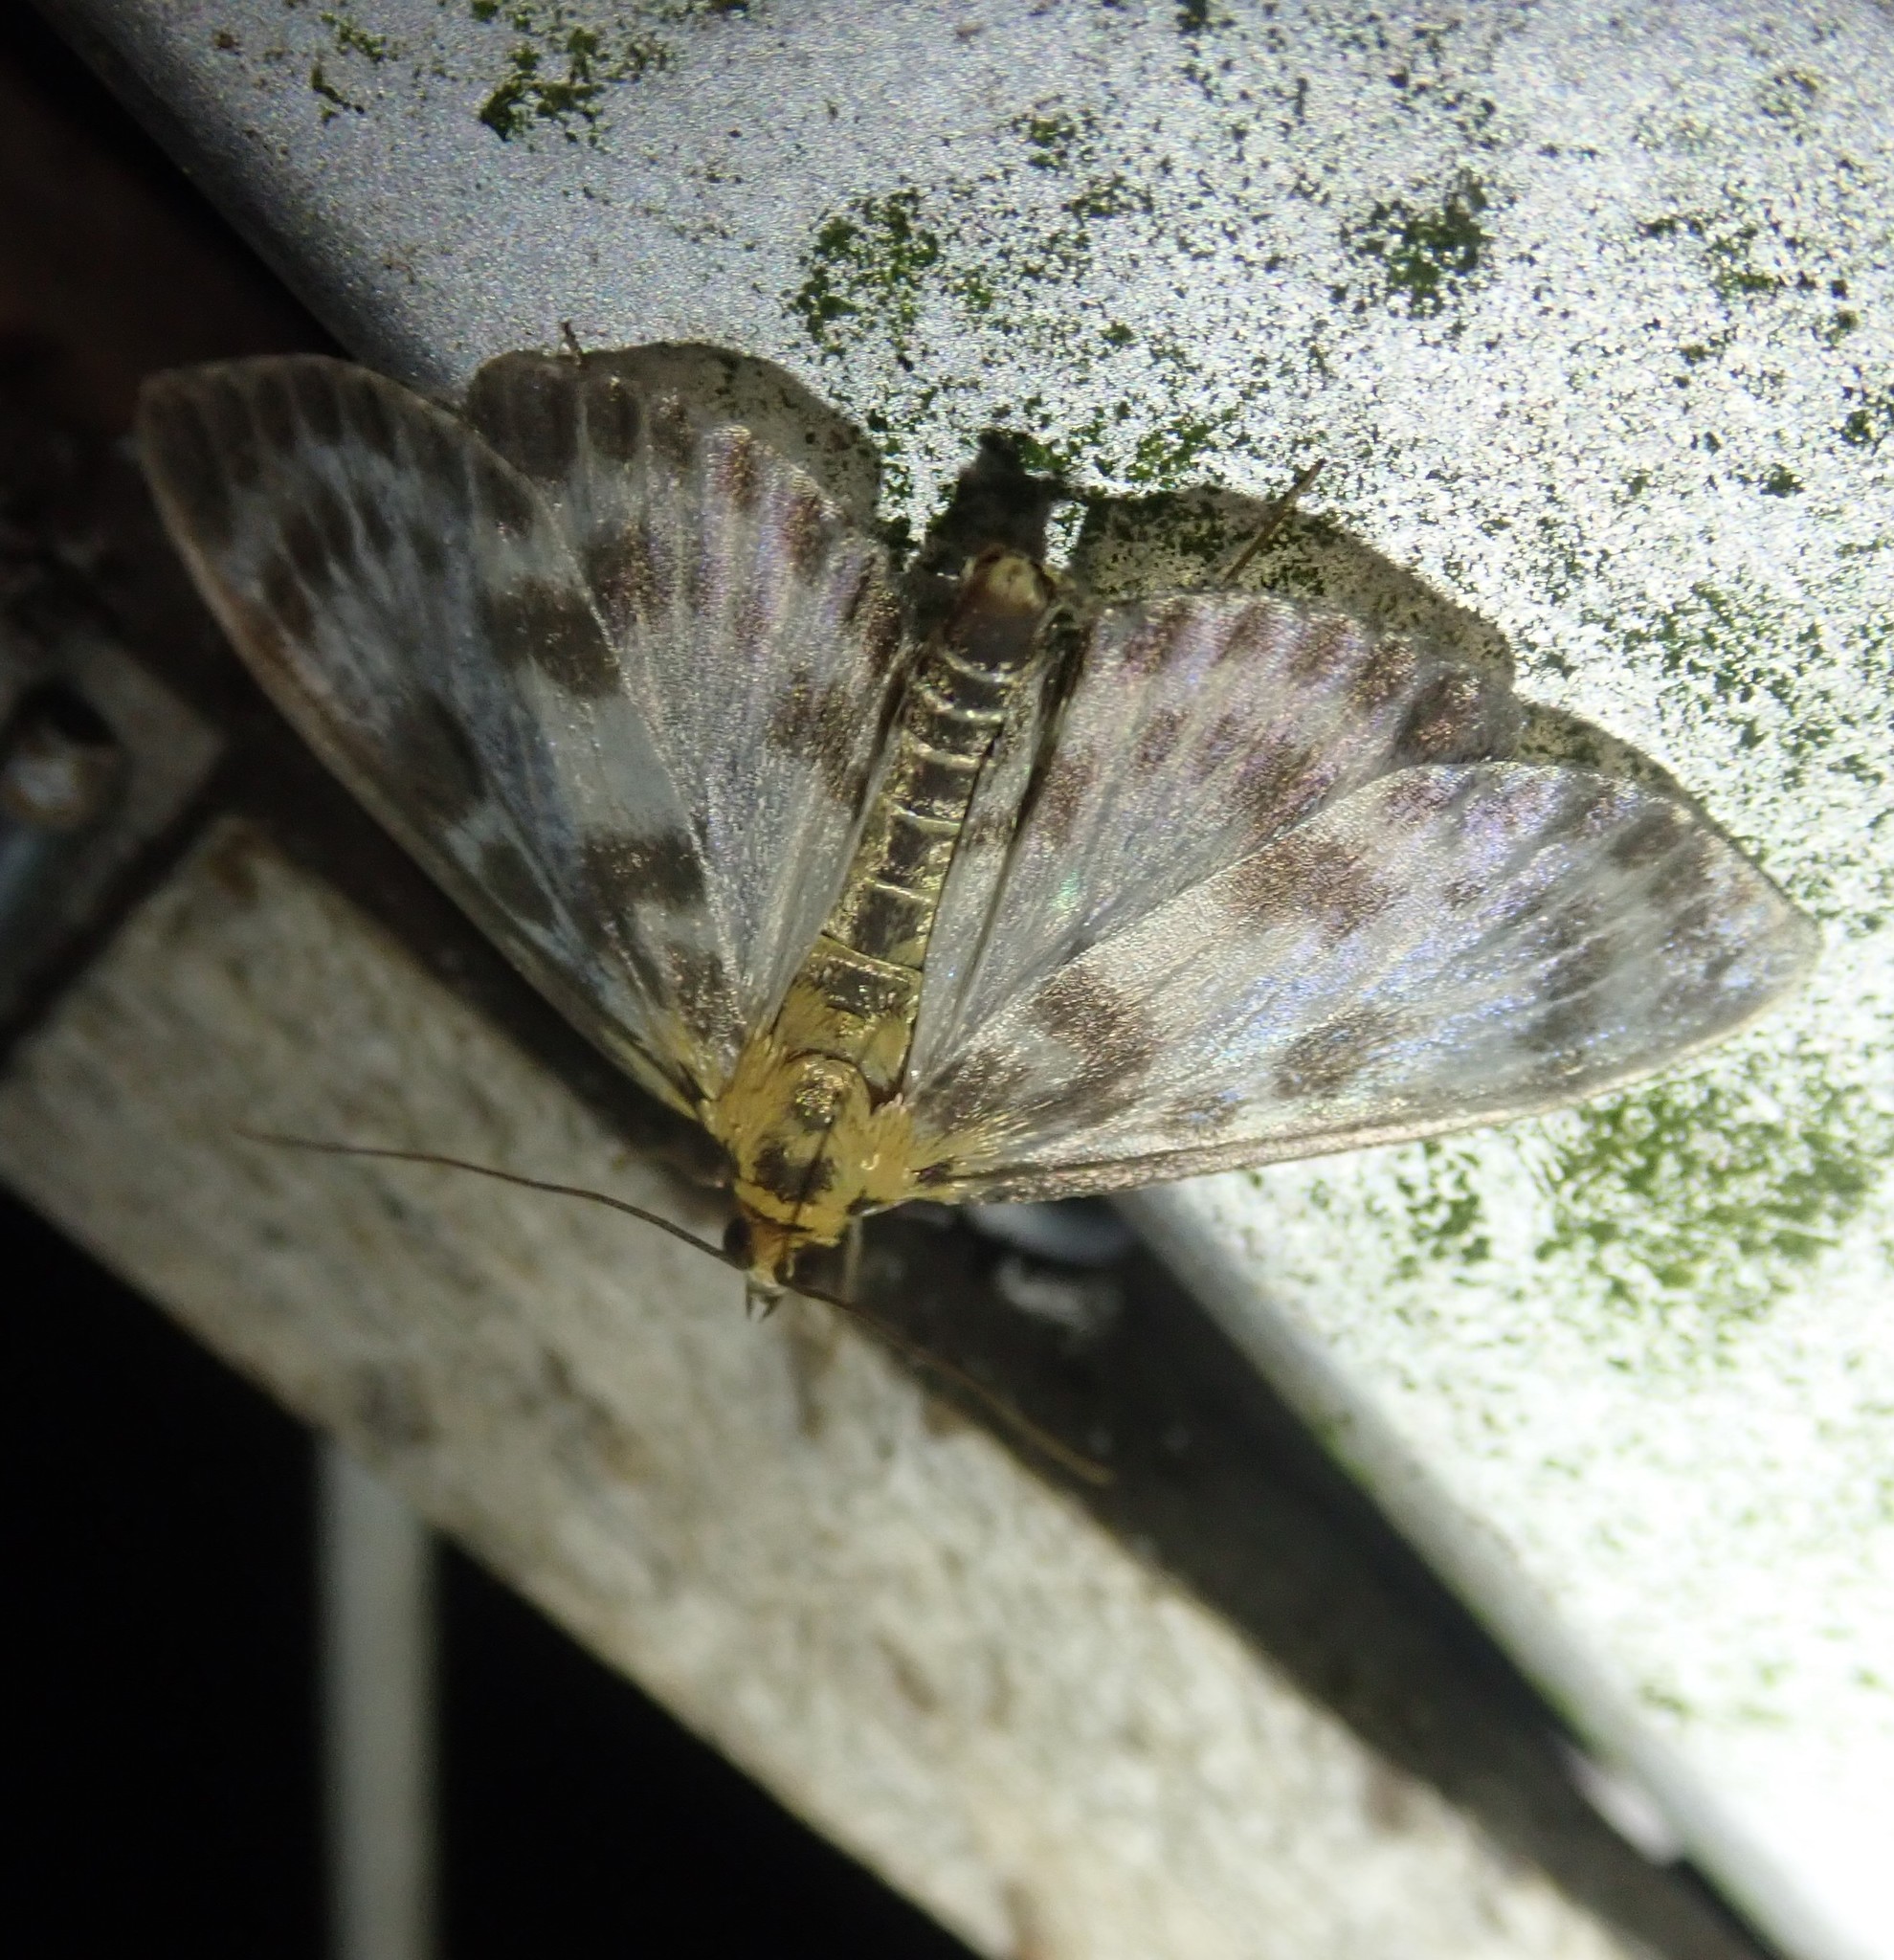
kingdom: Animalia
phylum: Arthropoda
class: Insecta
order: Lepidoptera
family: Crambidae
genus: Anania
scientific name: Anania hortulata
